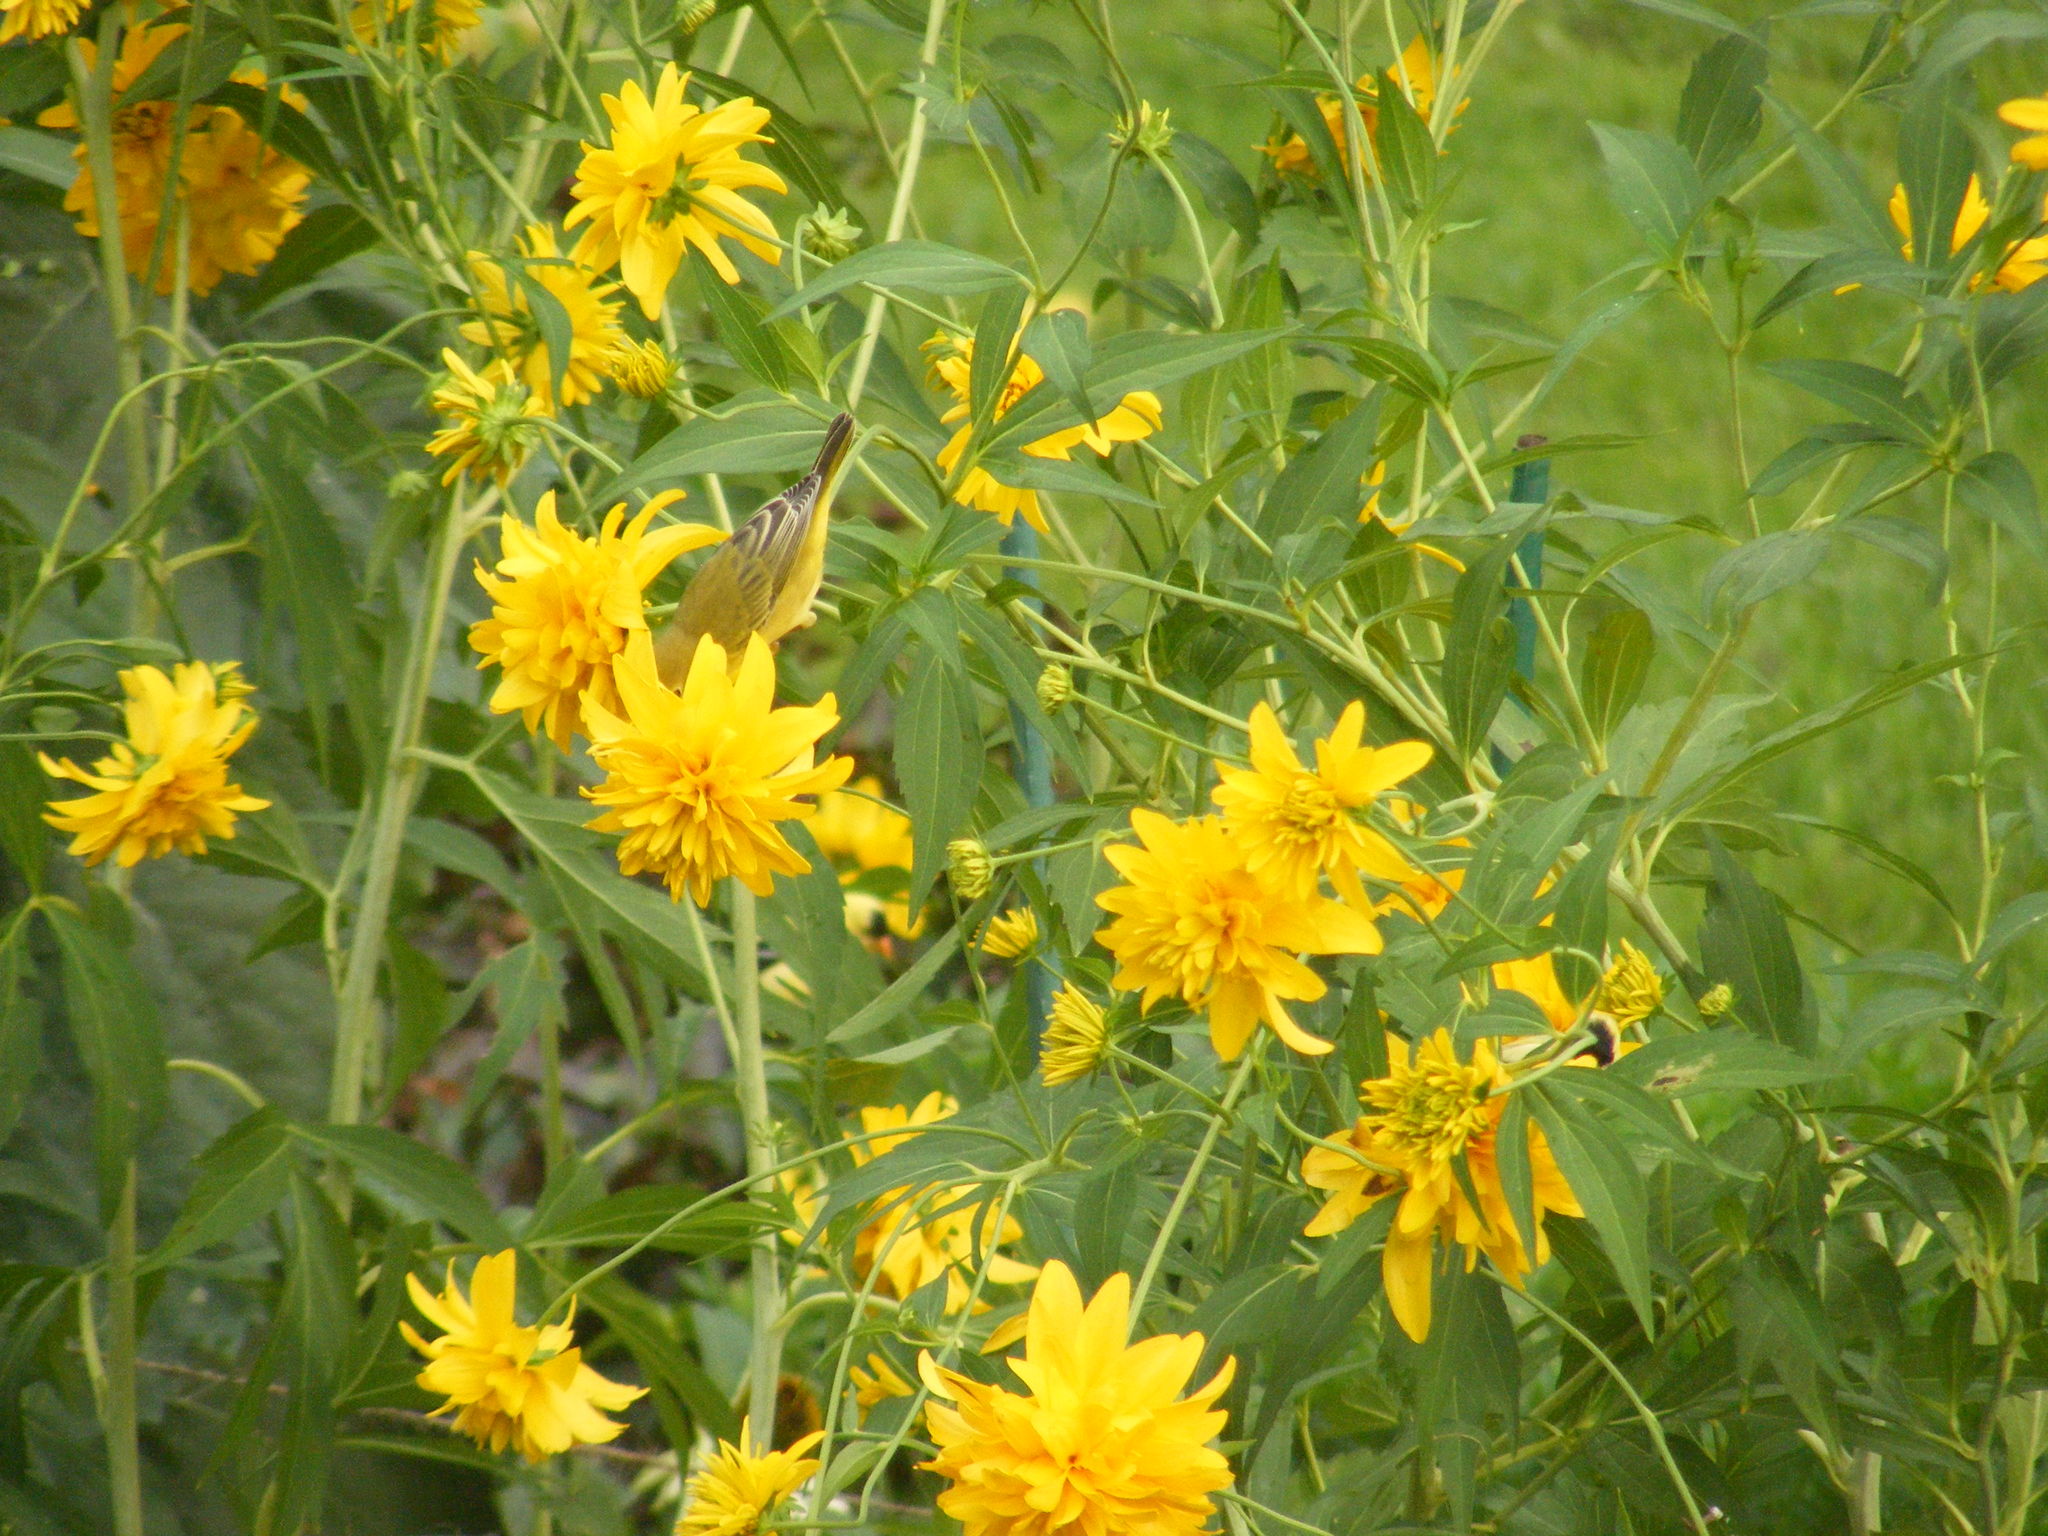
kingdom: Animalia
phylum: Chordata
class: Aves
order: Passeriformes
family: Parulidae
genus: Setophaga
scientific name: Setophaga petechia
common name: Yellow warbler
